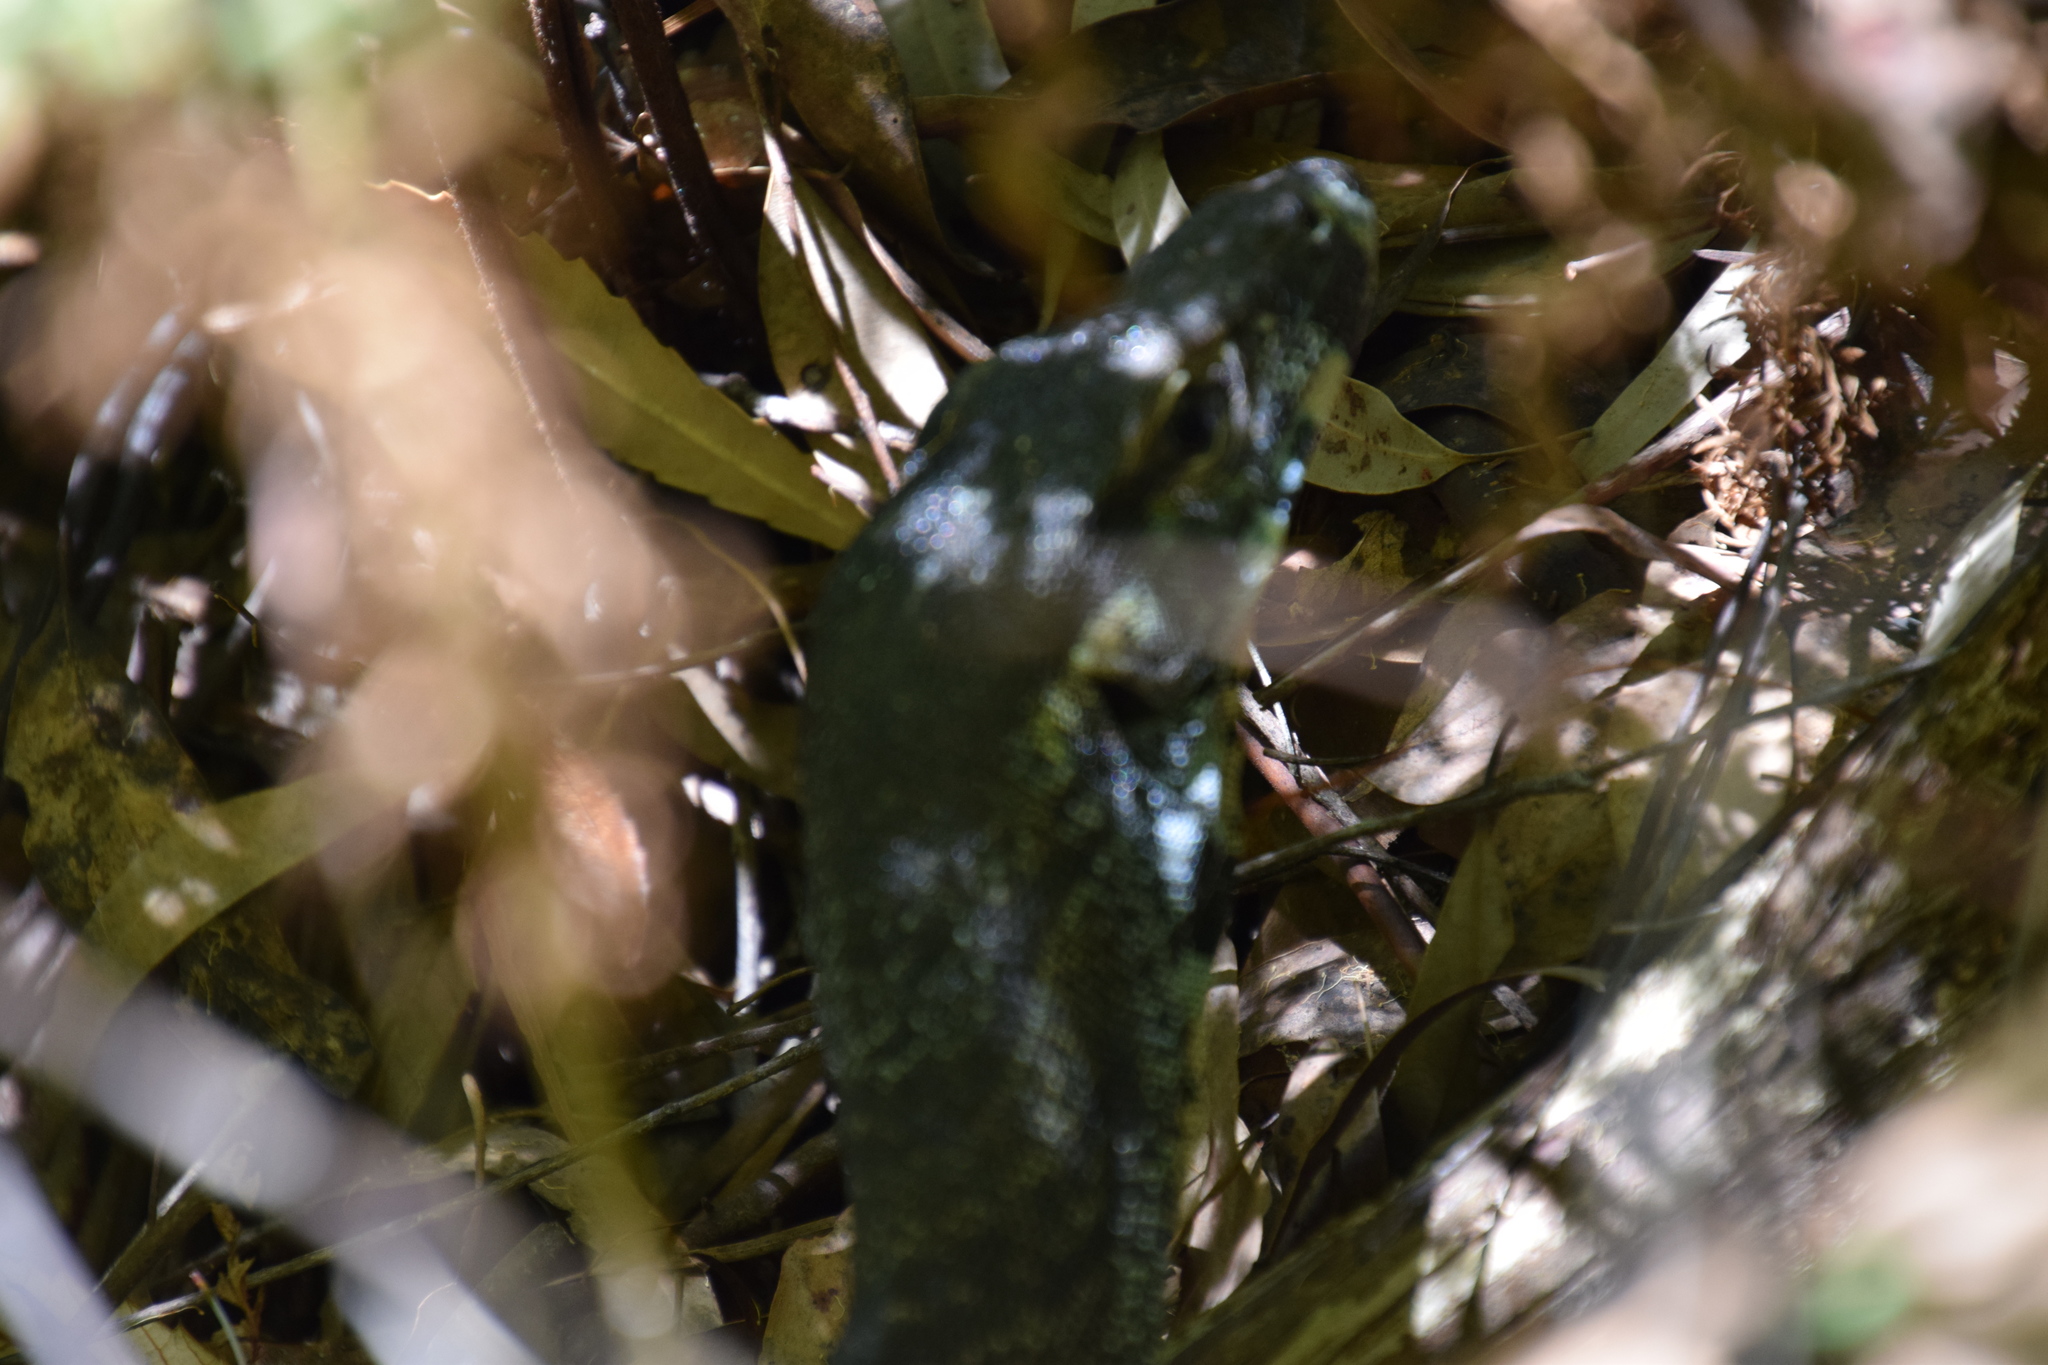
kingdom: Animalia
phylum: Chordata
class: Squamata
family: Varanidae
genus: Varanus
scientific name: Varanus varius
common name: Lace monitor
